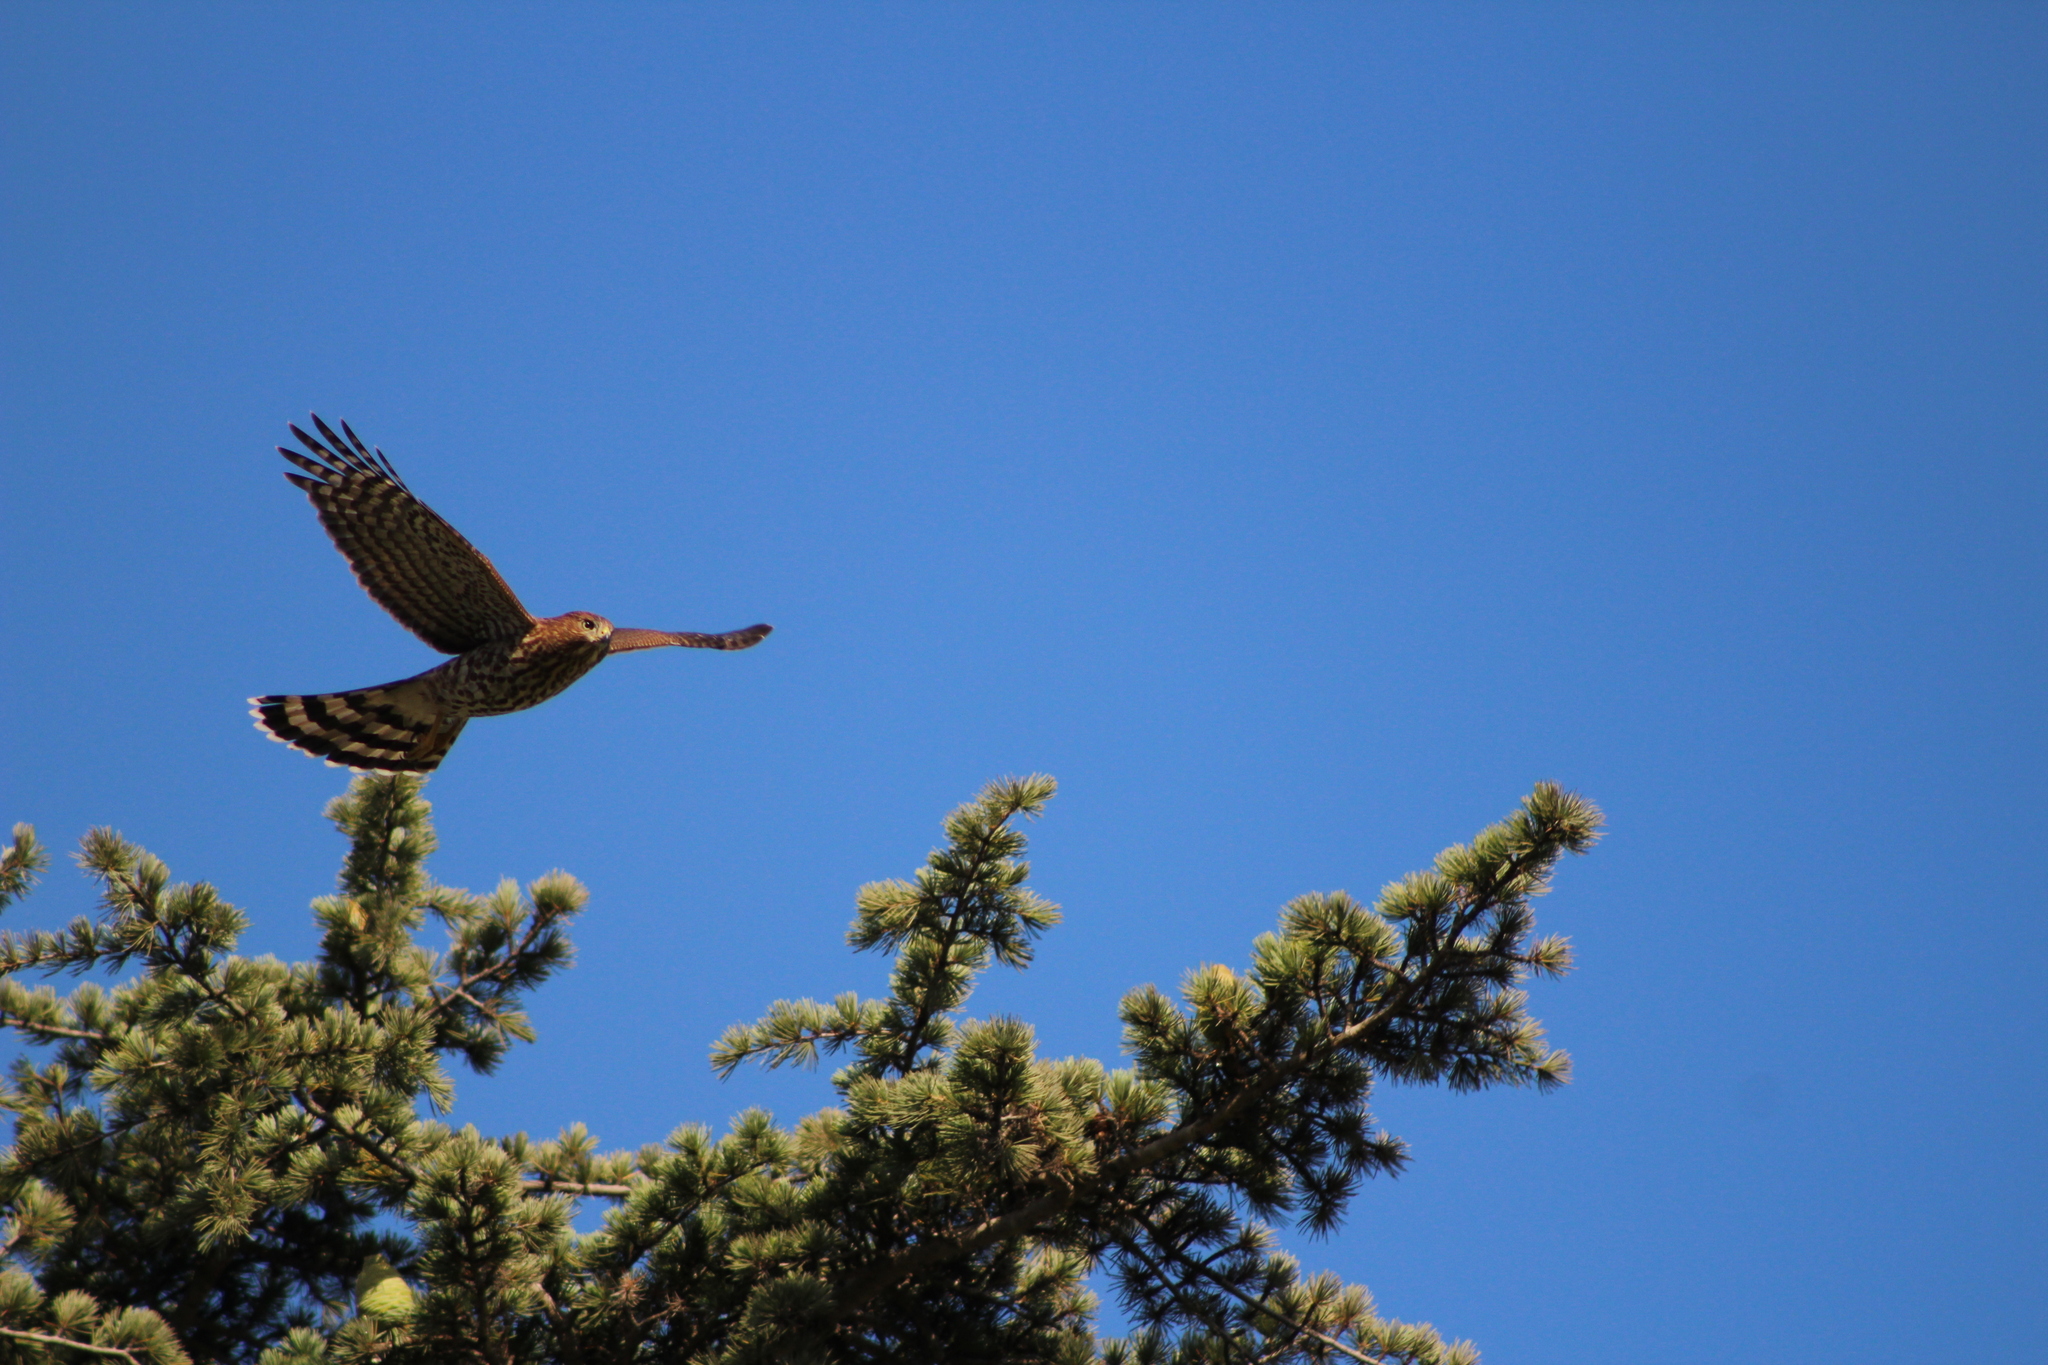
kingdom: Animalia
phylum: Chordata
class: Aves
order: Accipitriformes
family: Accipitridae
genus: Accipiter
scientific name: Accipiter cooperii
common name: Cooper's hawk
